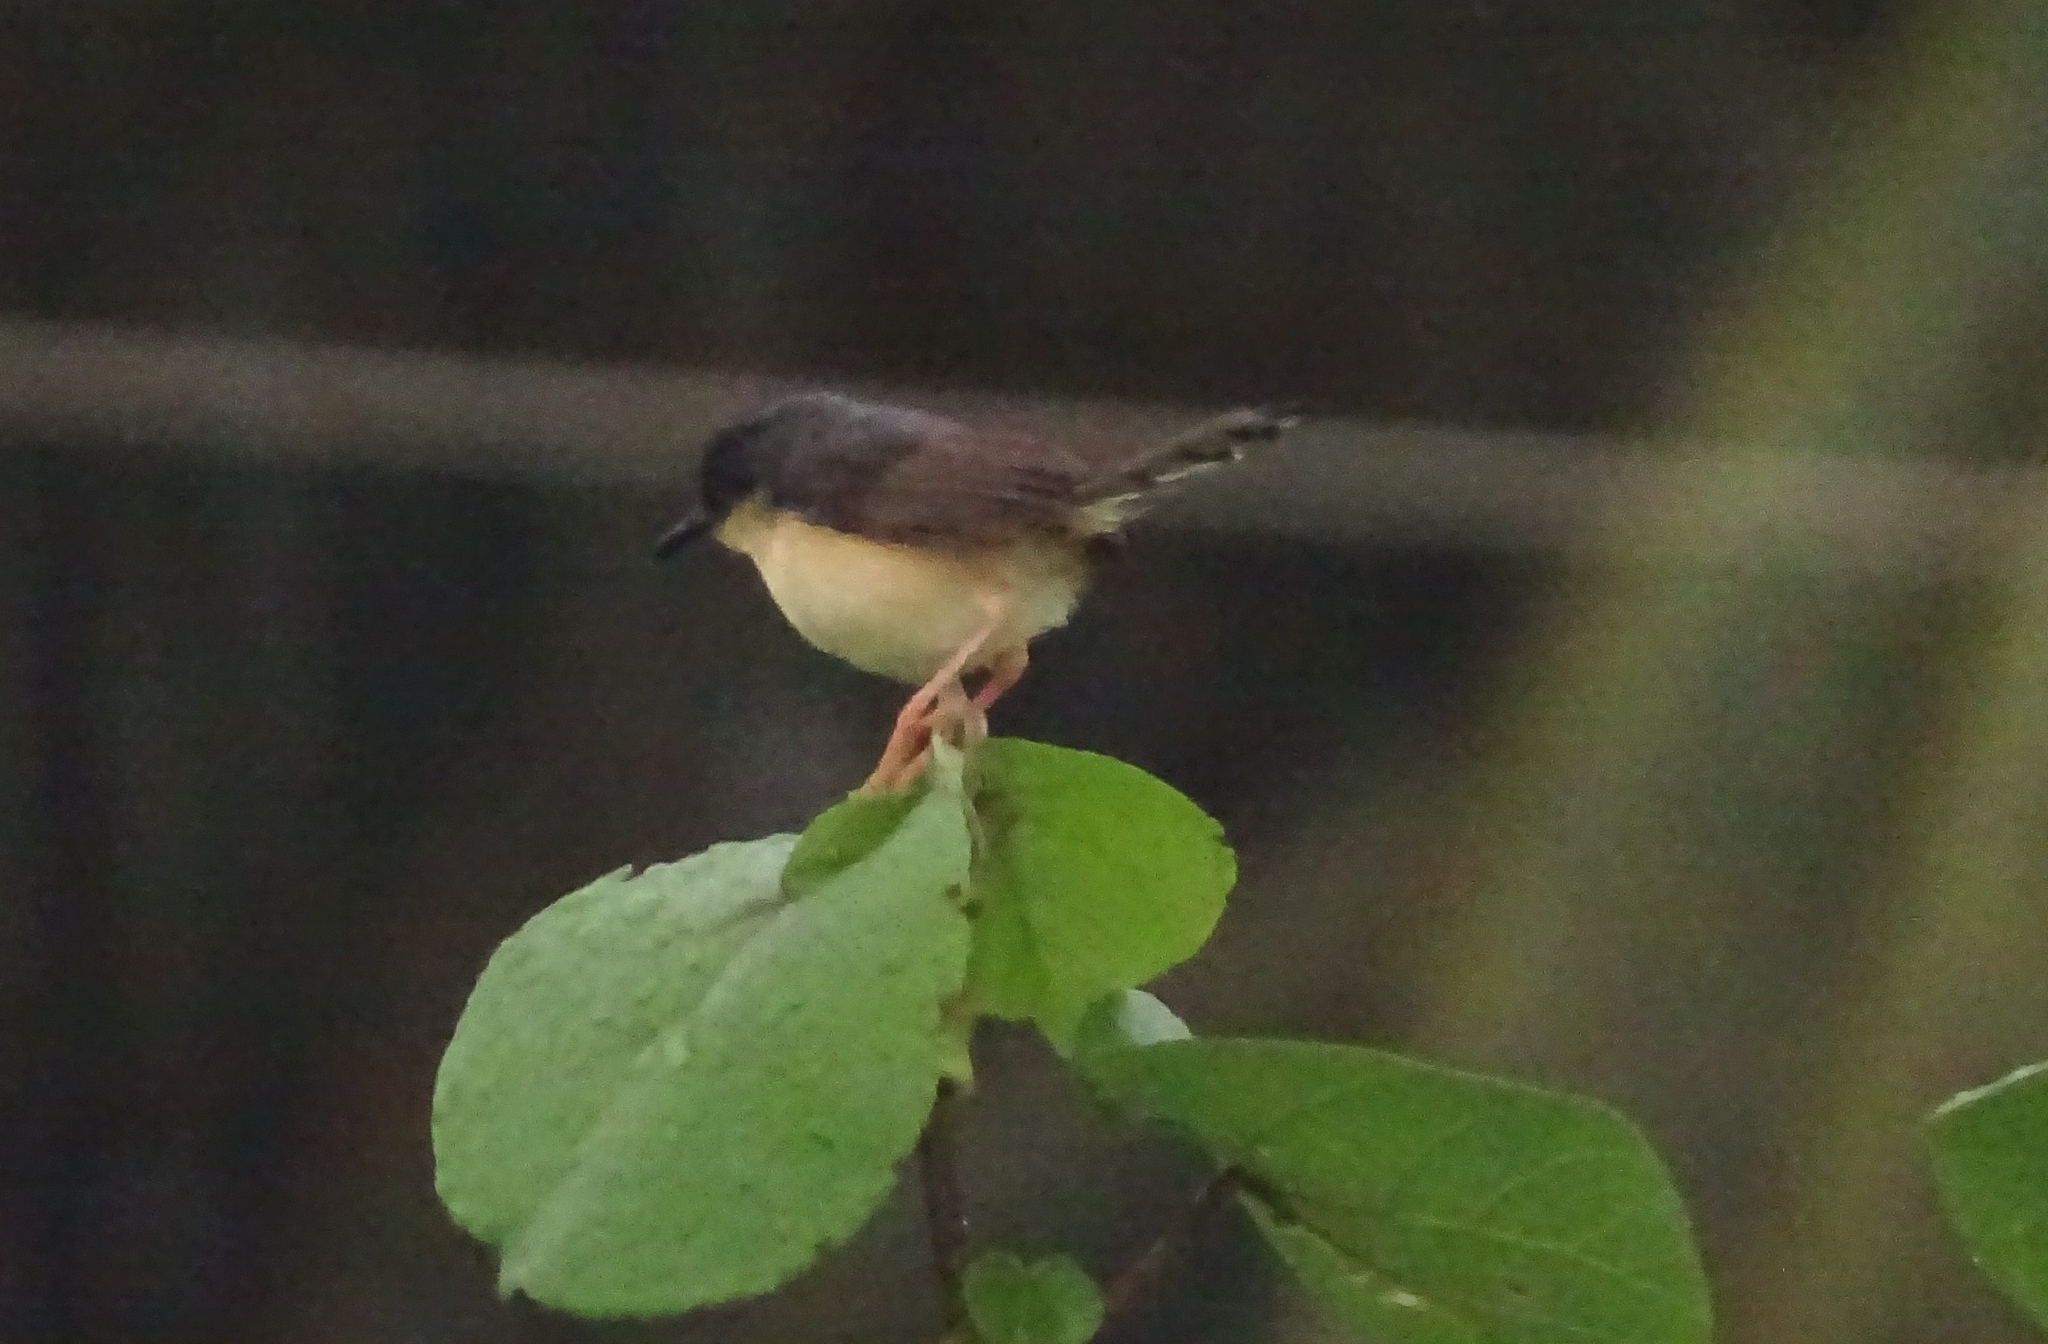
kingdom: Animalia
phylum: Chordata
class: Aves
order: Passeriformes
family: Cisticolidae
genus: Prinia
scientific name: Prinia socialis
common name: Ashy prinia
